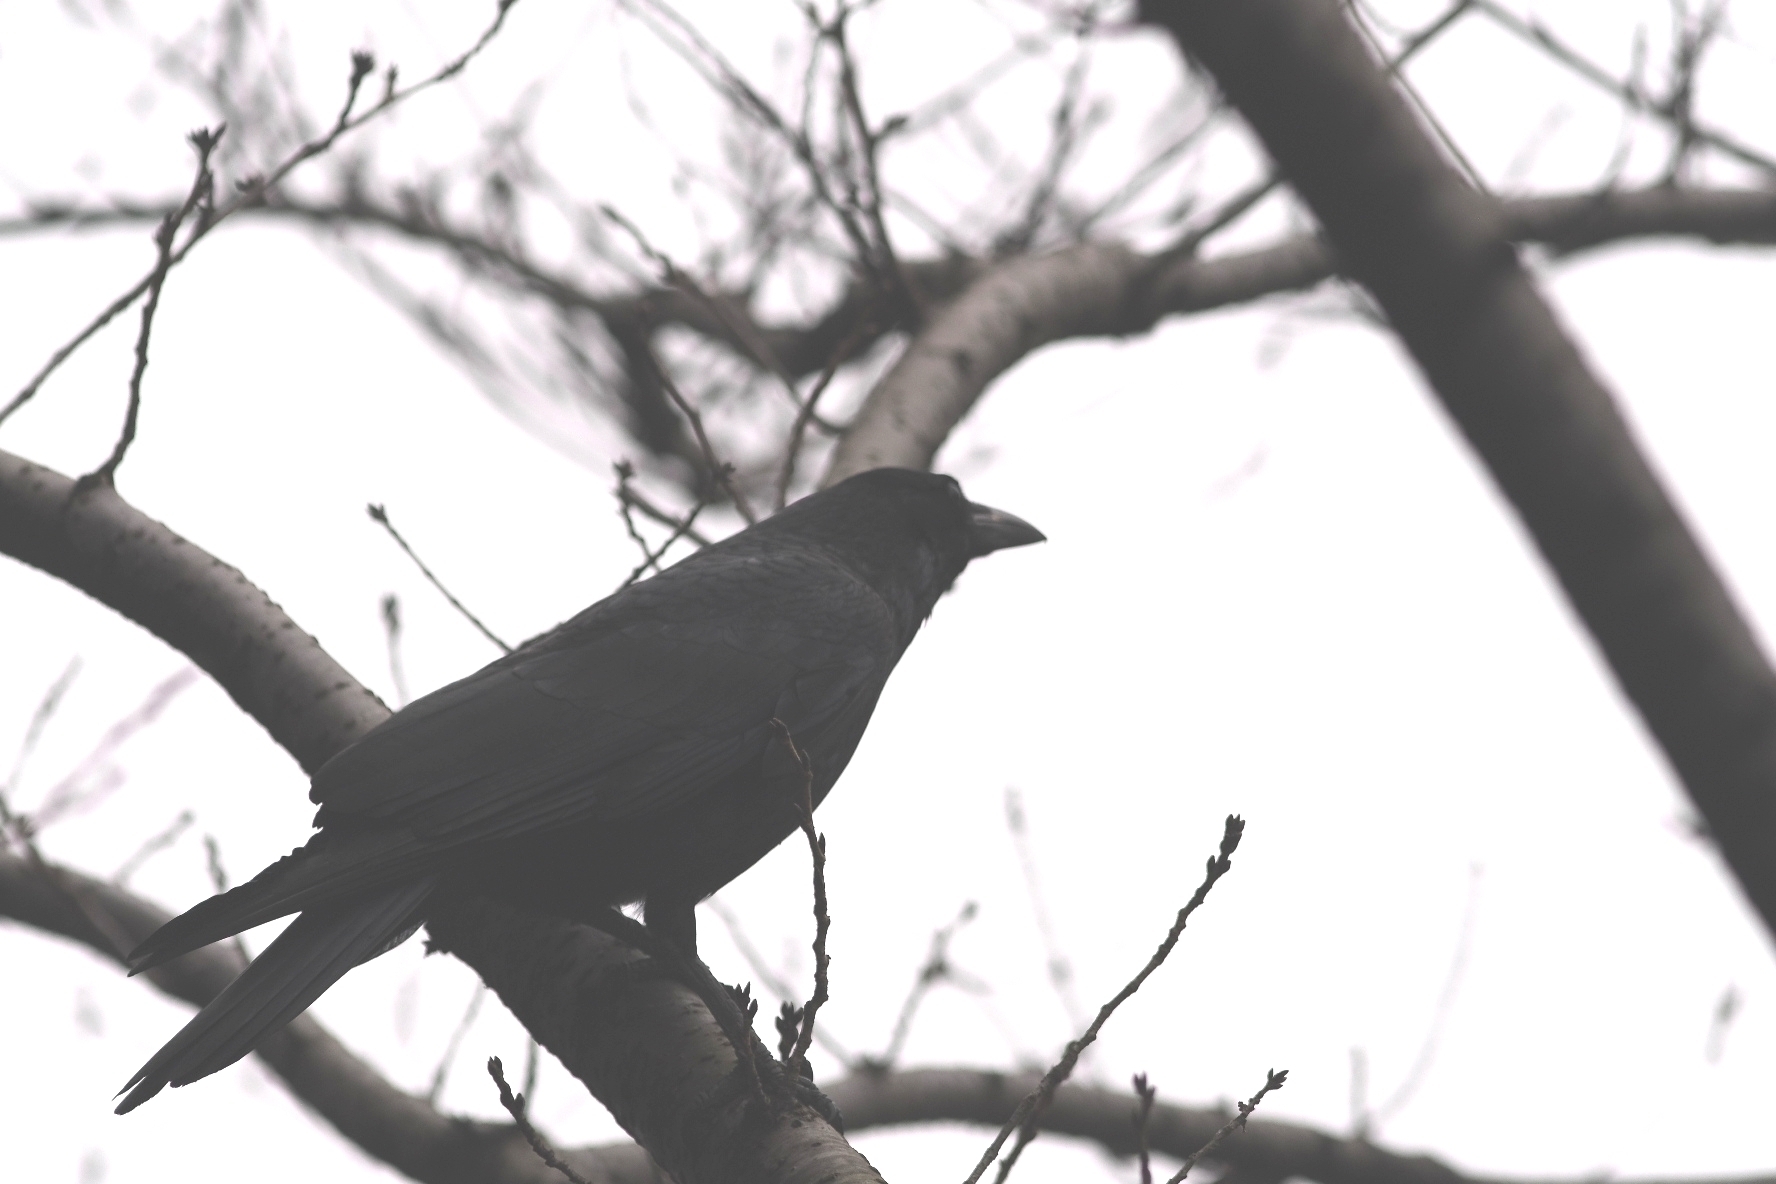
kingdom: Animalia
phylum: Chordata
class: Aves
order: Passeriformes
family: Corvidae
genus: Corvus
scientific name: Corvus corone
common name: Carrion crow
